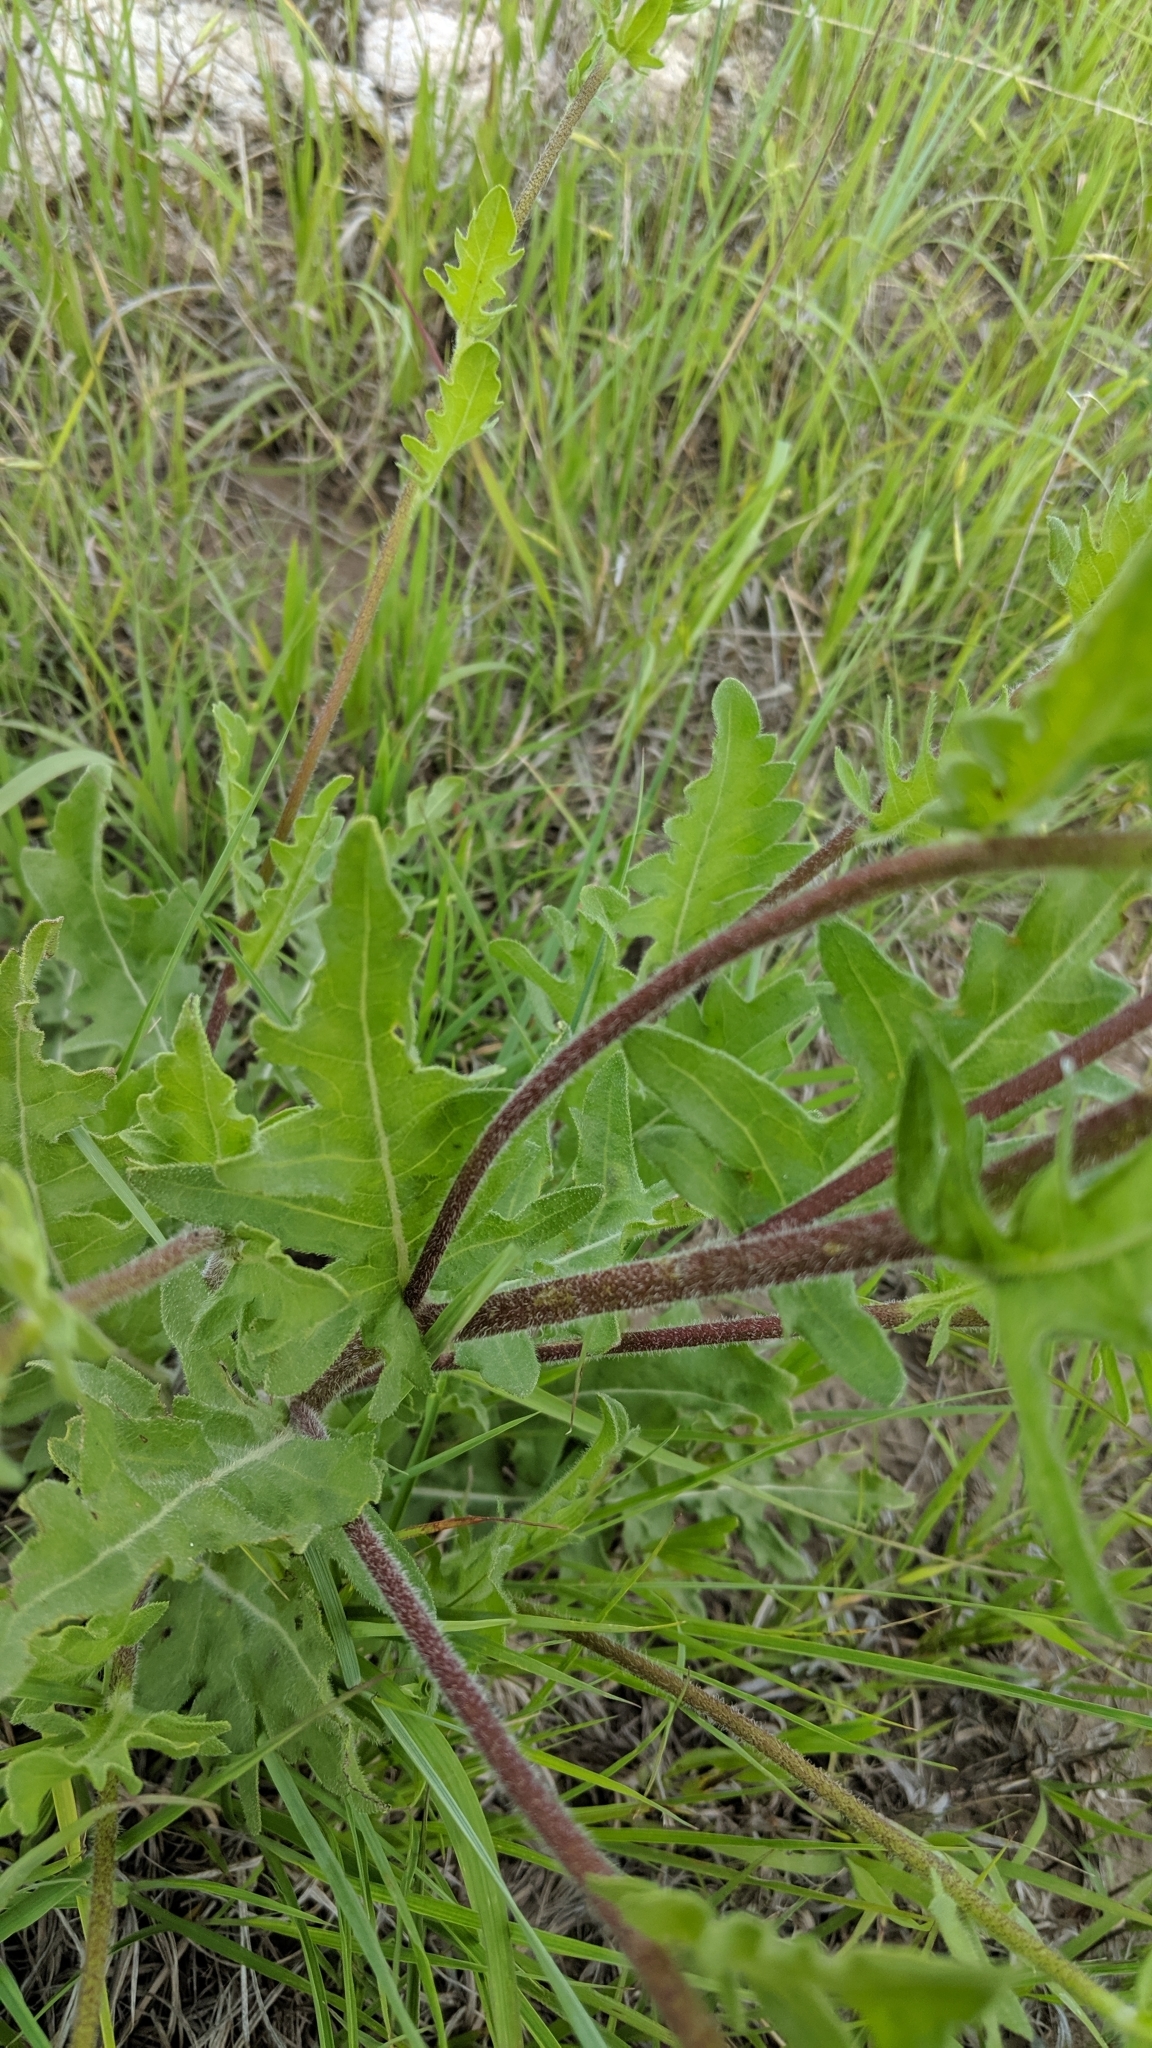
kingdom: Plantae
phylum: Tracheophyta
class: Magnoliopsida
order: Asterales
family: Asteraceae
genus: Engelmannia
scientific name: Engelmannia peristenia
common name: Engelmann's daisy
